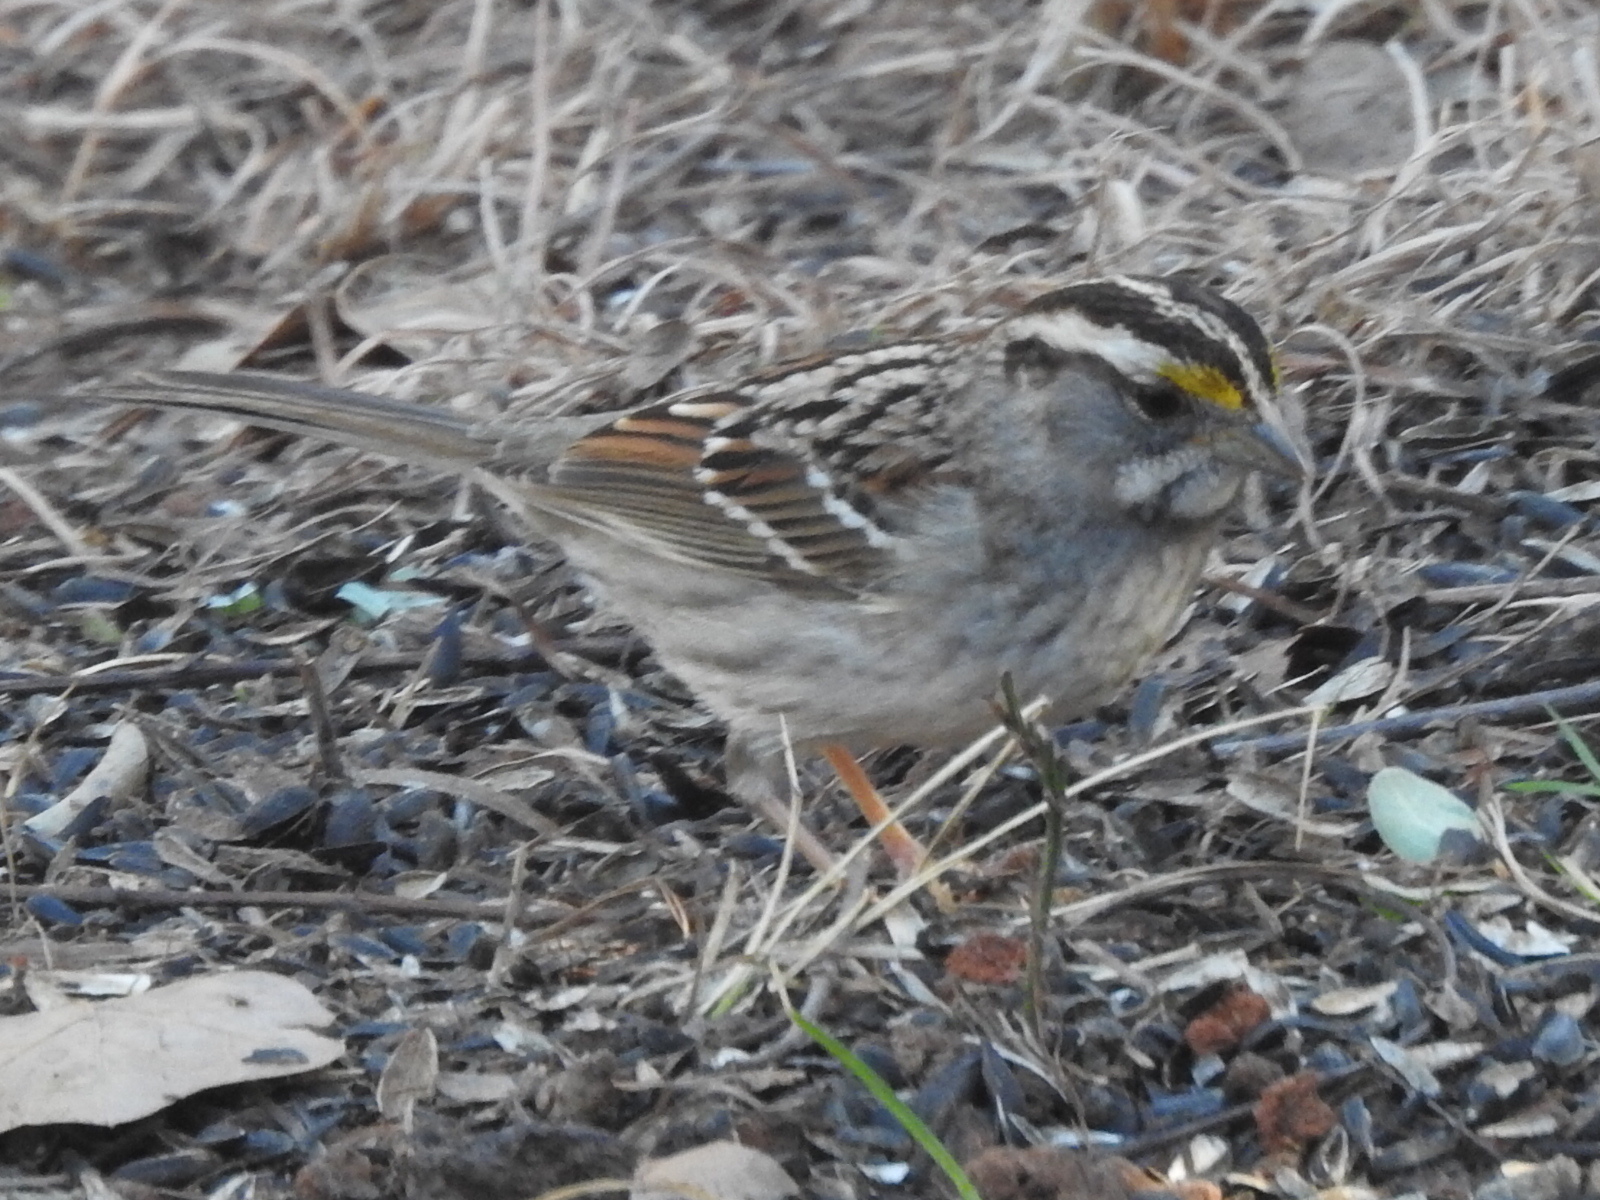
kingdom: Animalia
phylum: Chordata
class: Aves
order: Passeriformes
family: Passerellidae
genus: Zonotrichia
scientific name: Zonotrichia albicollis
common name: White-throated sparrow
